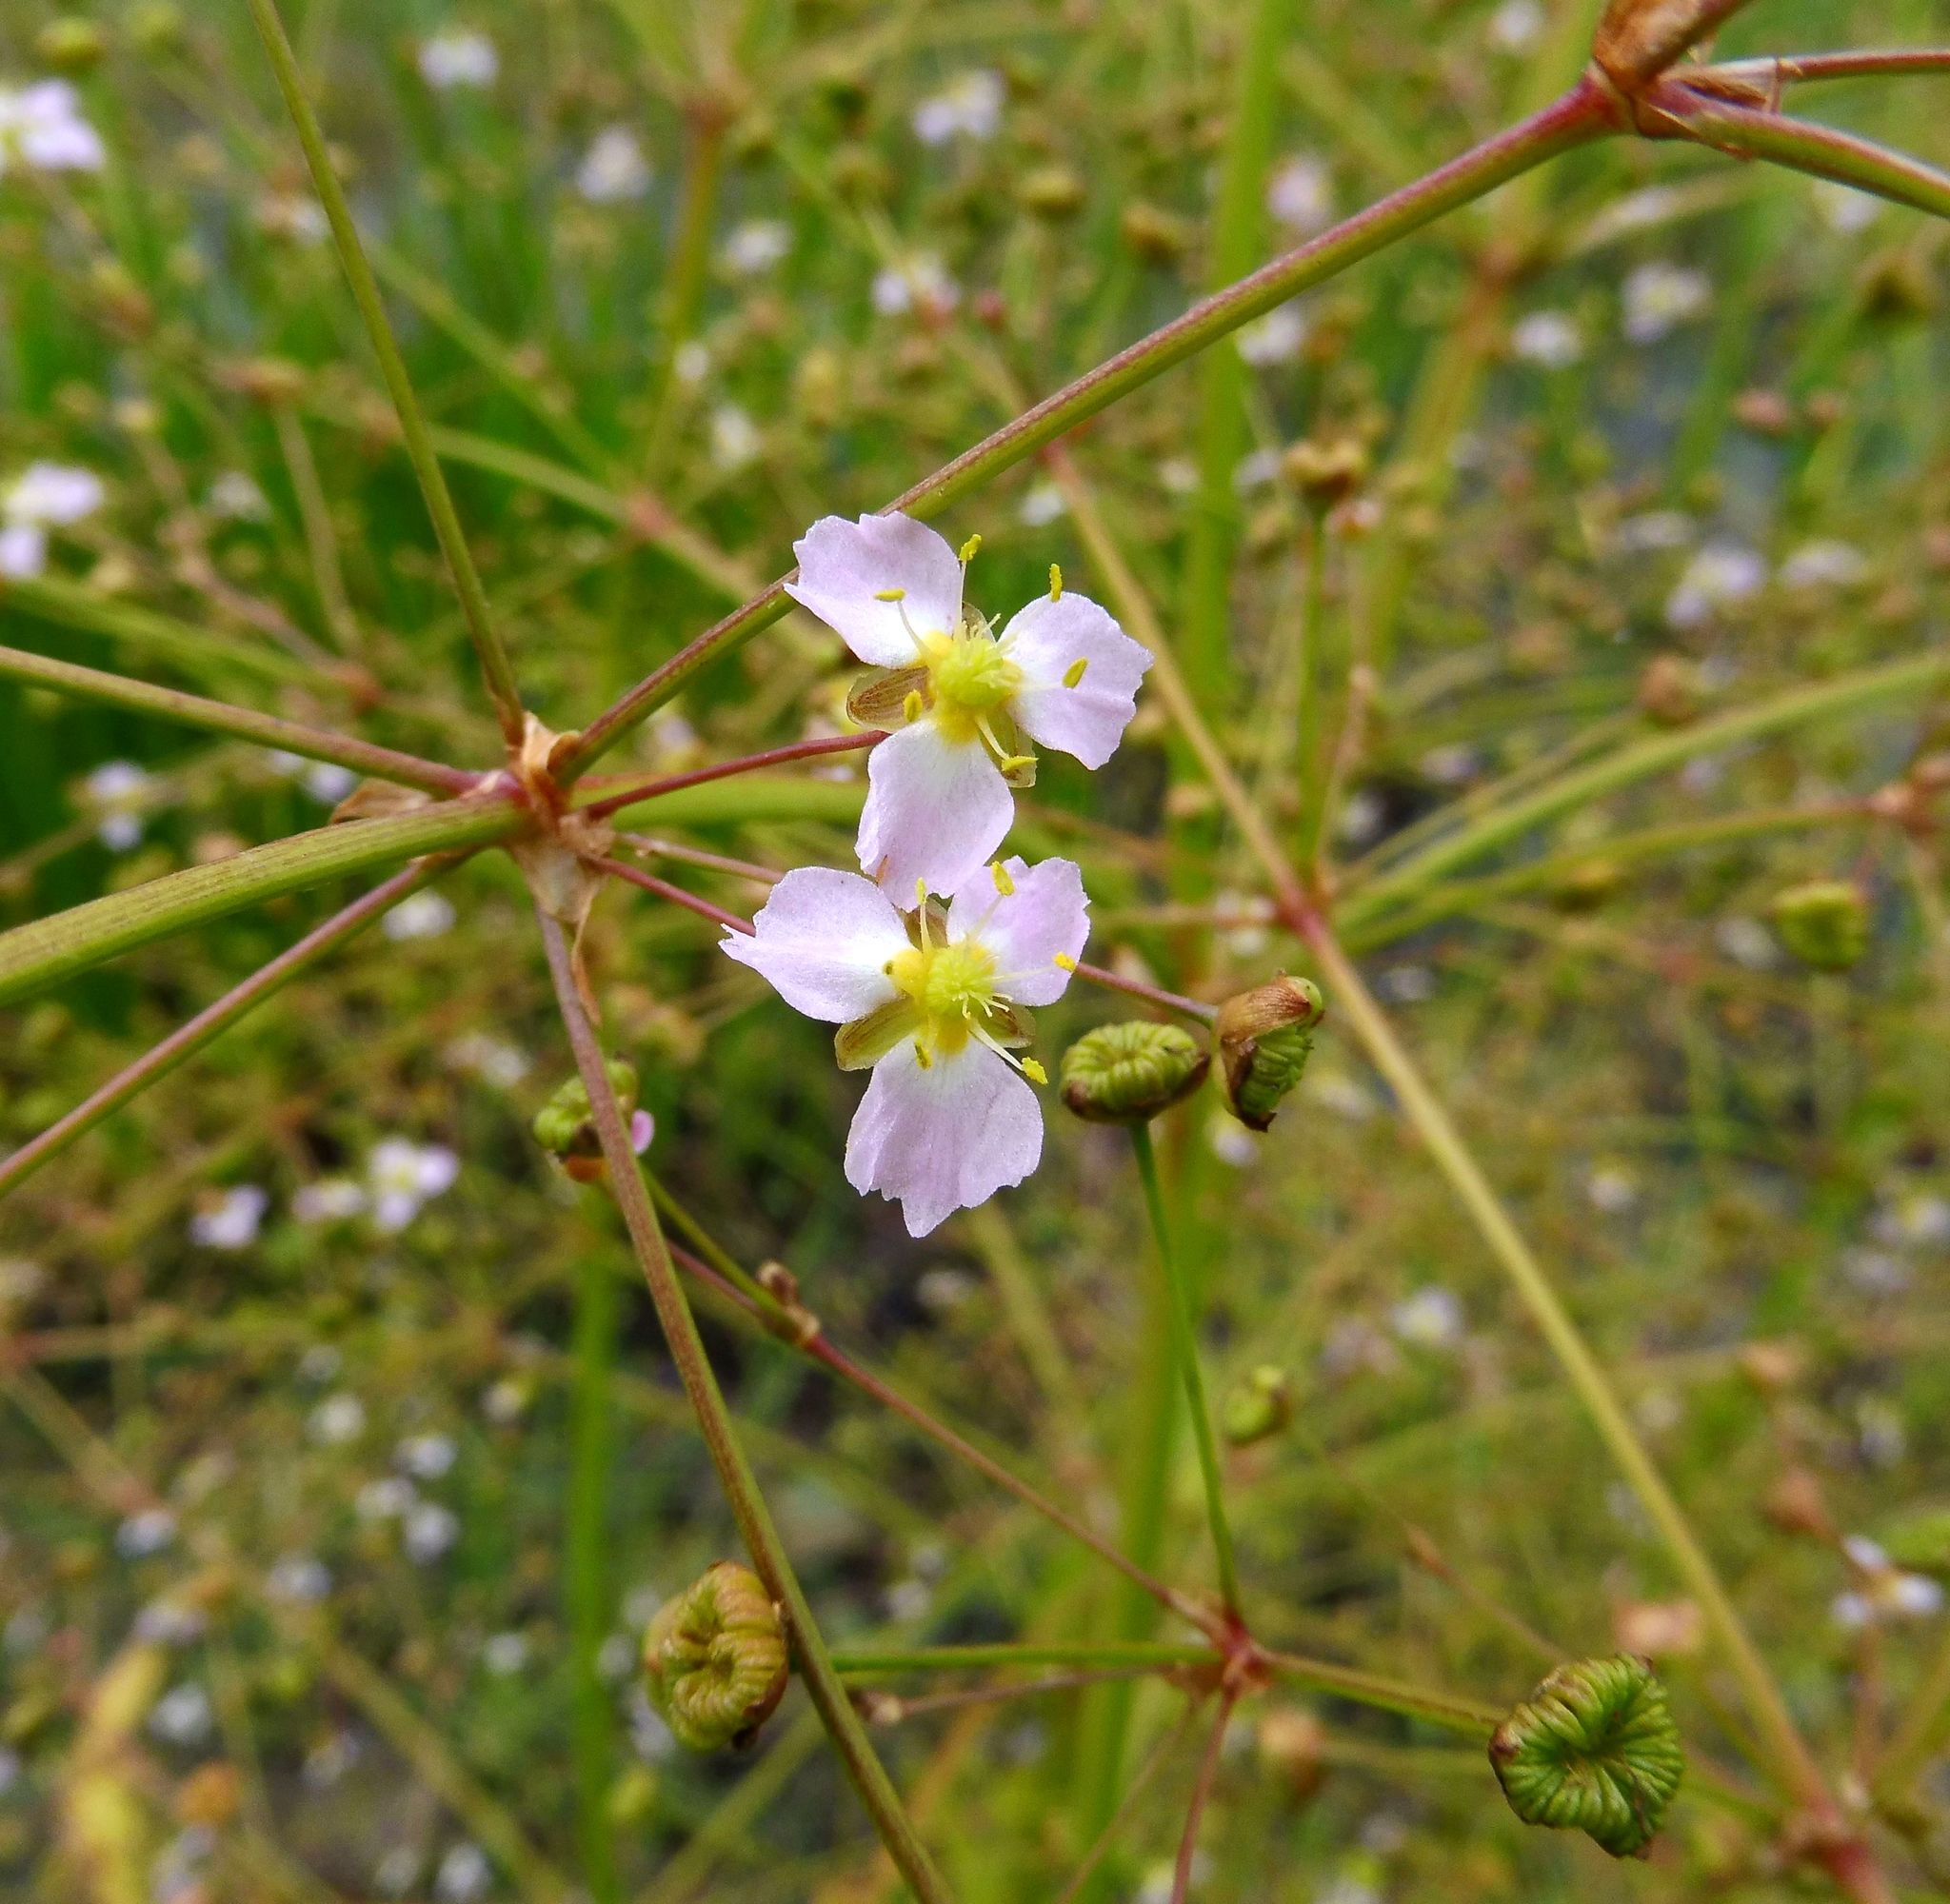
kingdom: Plantae
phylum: Tracheophyta
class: Liliopsida
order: Alismatales
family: Alismataceae
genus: Alisma
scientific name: Alisma plantago-aquatica
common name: Water-plantain
